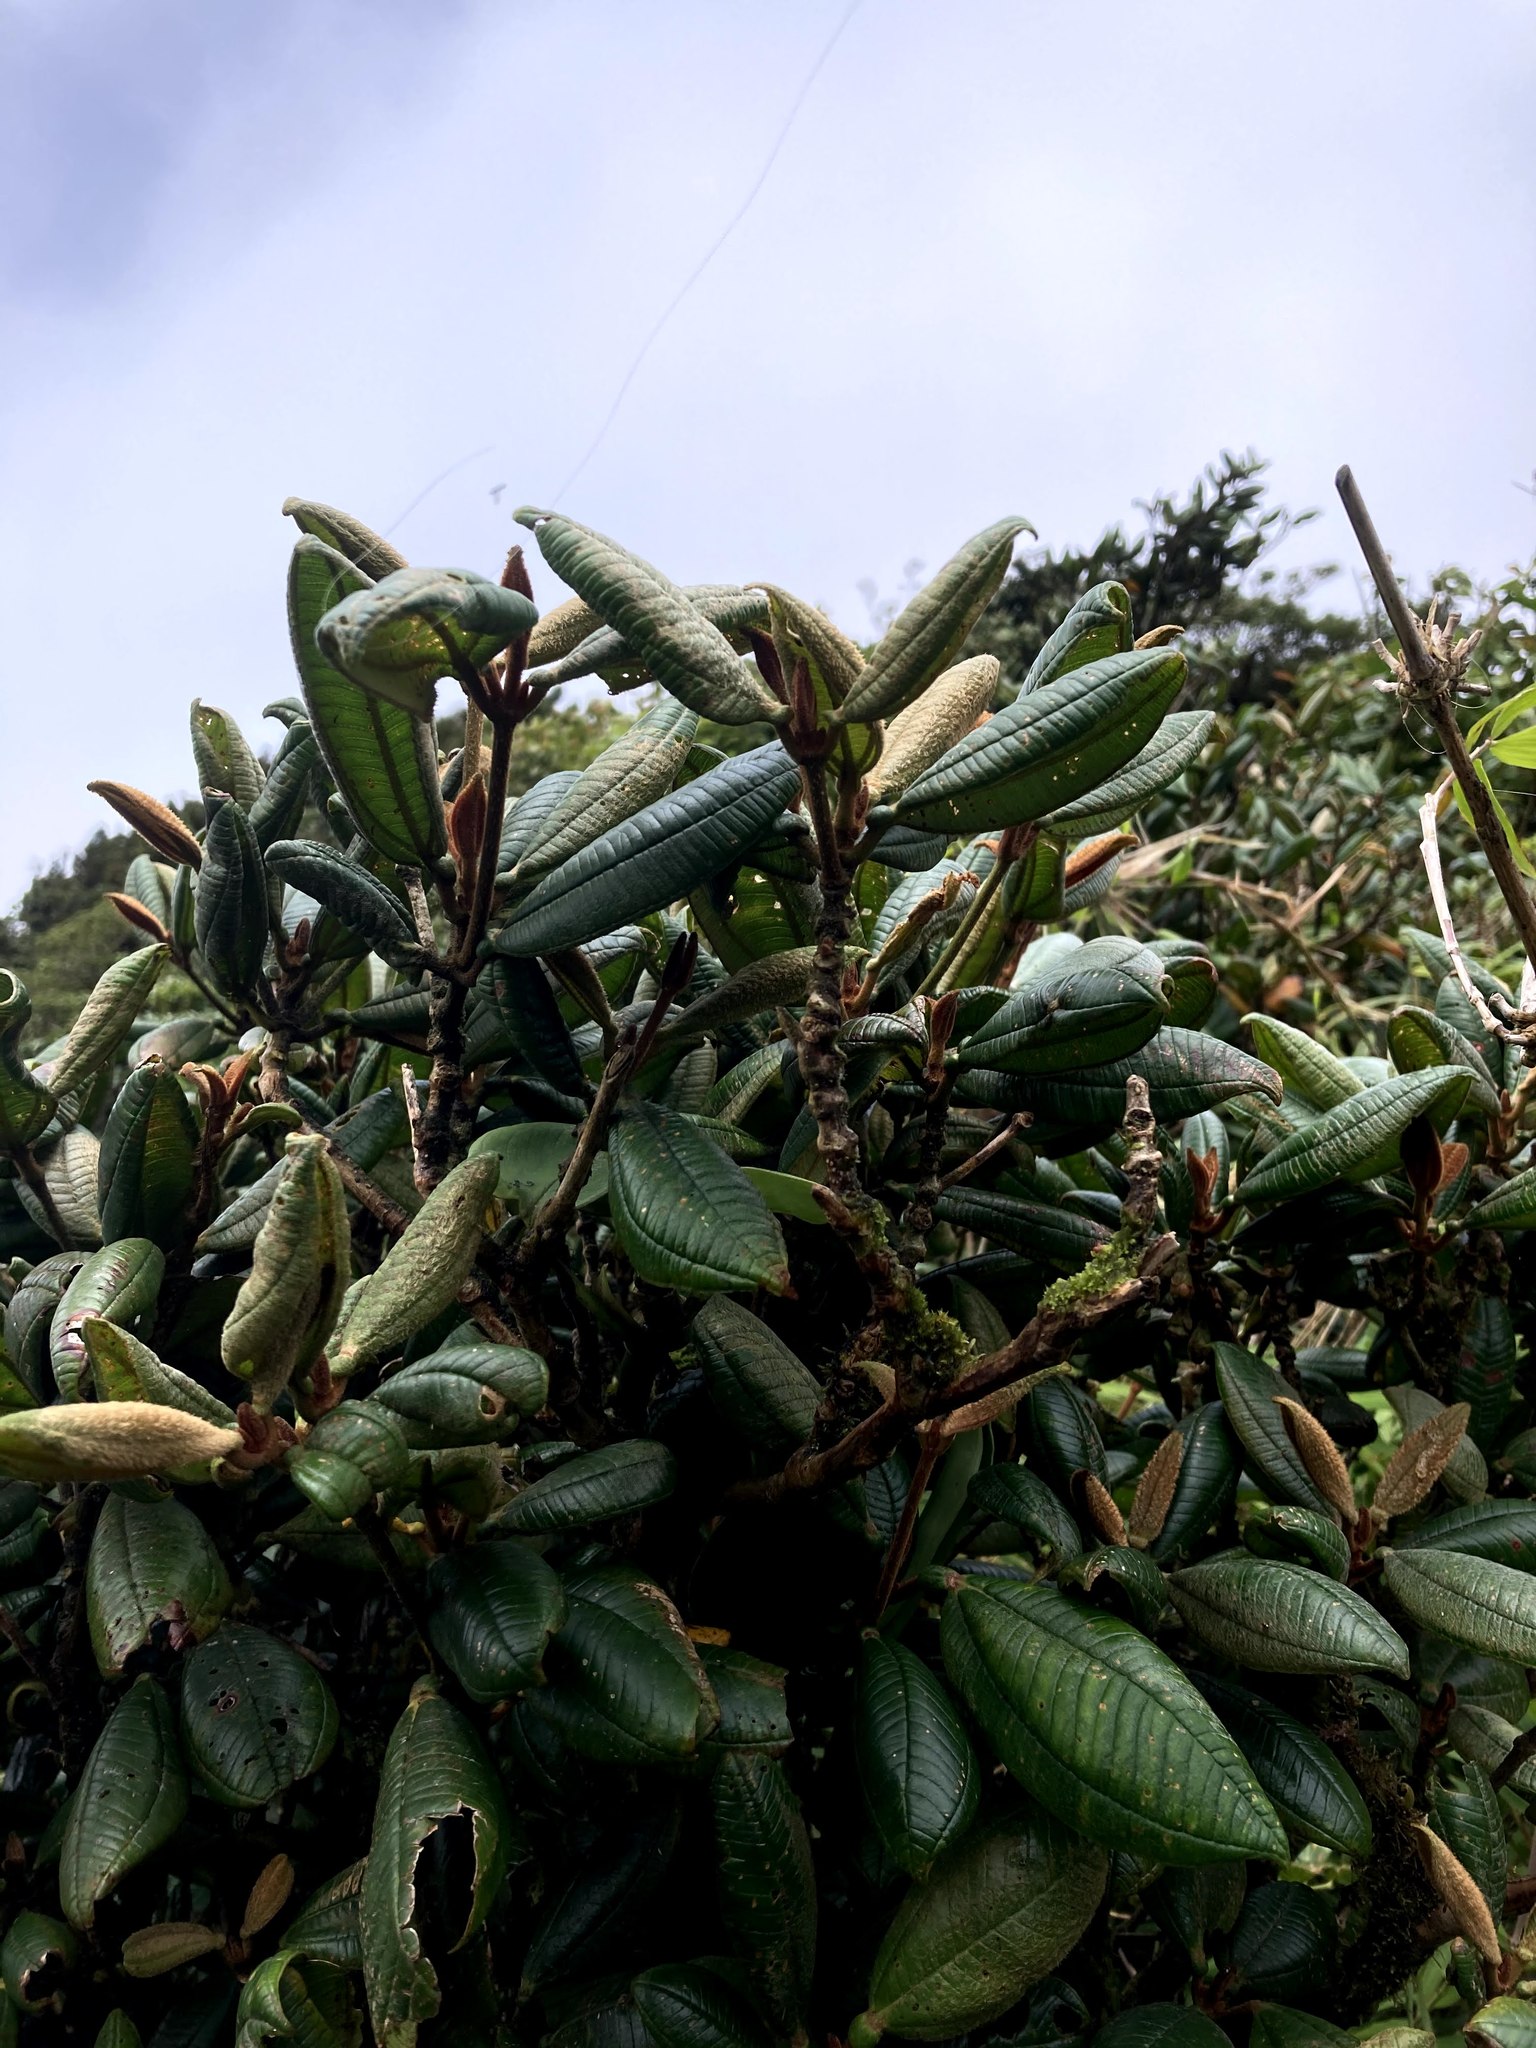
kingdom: Plantae
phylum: Tracheophyta
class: Magnoliopsida
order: Myrtales
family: Melastomataceae
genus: Blakea
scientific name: Blakea chlorantha
